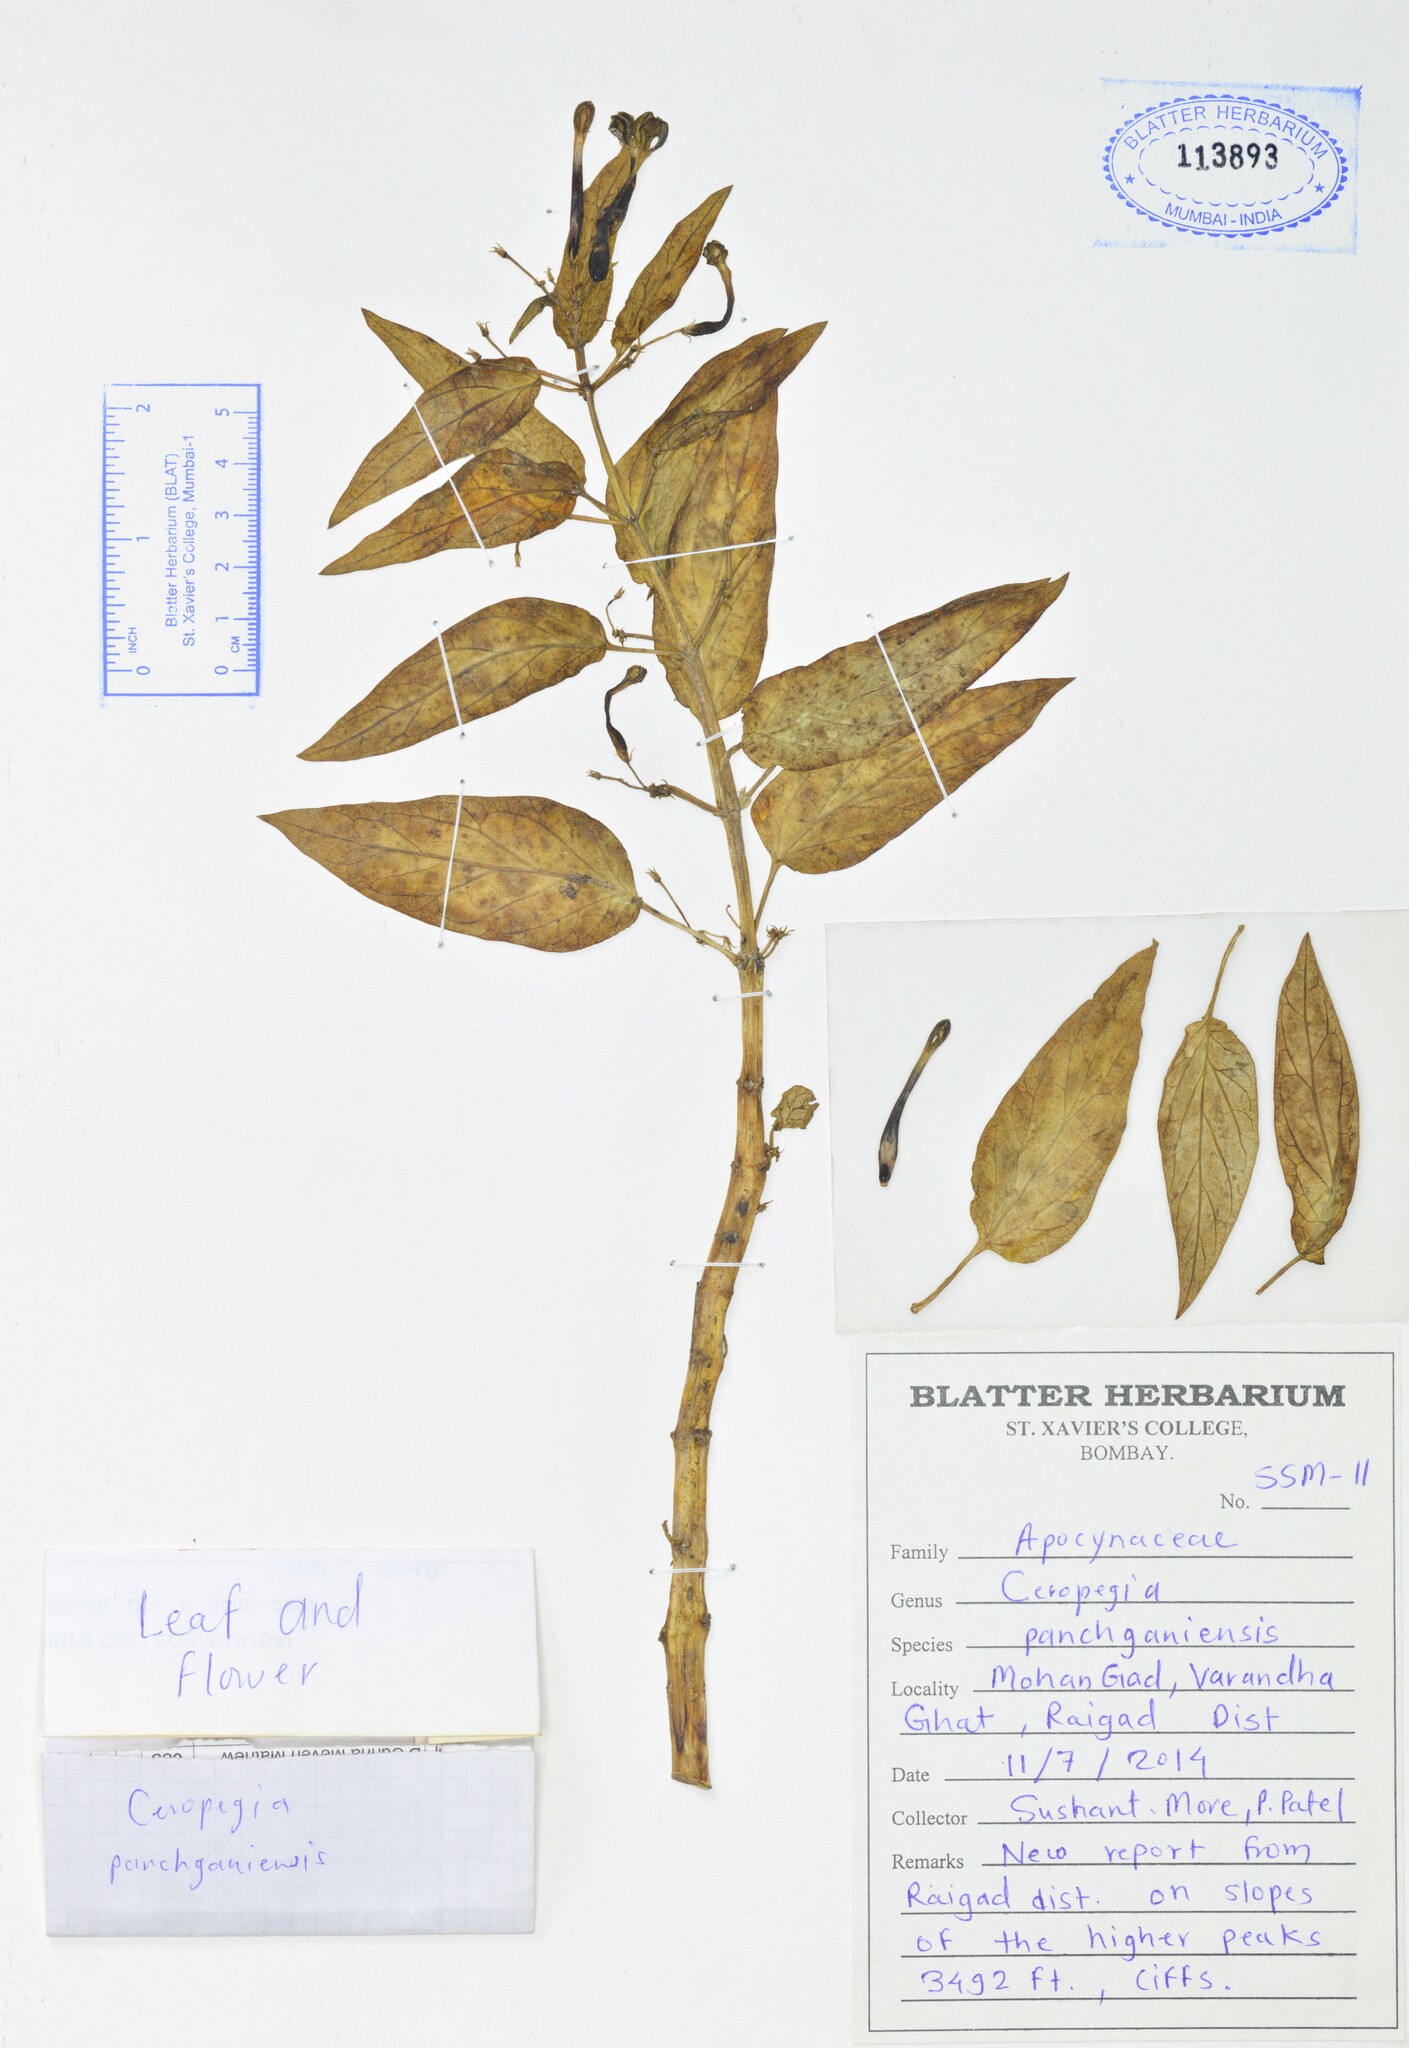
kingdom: Plantae
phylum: Tracheophyta
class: Magnoliopsida
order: Gentianales
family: Apocynaceae
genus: Ceropegia
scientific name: Ceropegia lawii
